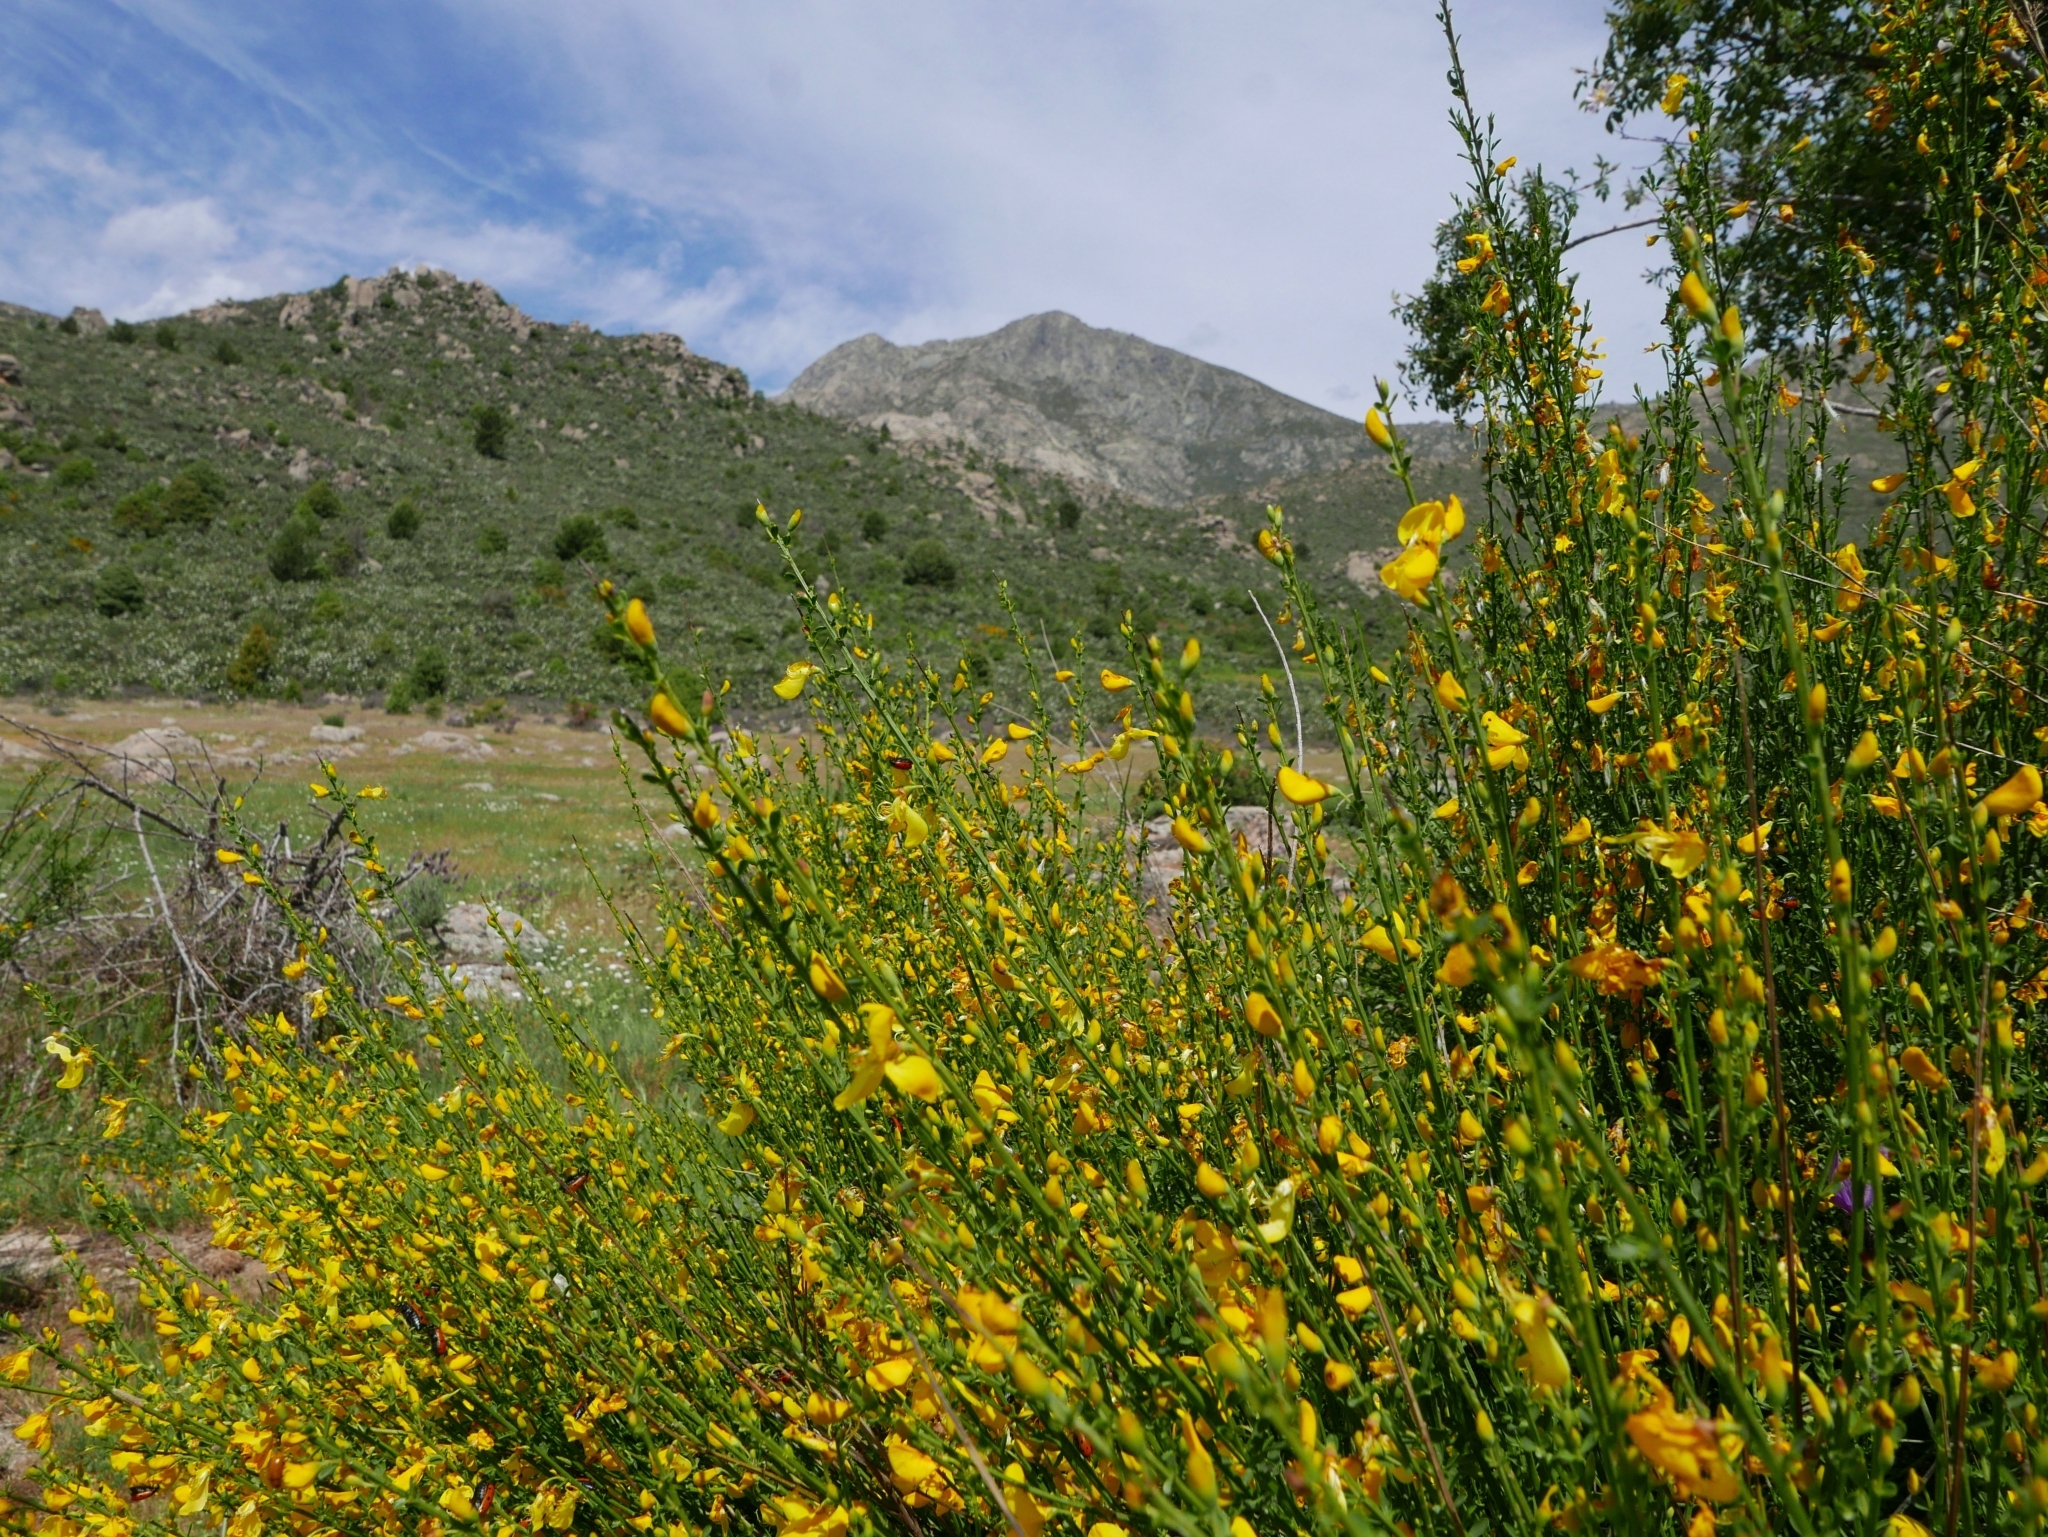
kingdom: Plantae
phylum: Tracheophyta
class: Magnoliopsida
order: Fabales
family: Fabaceae
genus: Cytisus
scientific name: Cytisus scoparius
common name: Scotch broom
